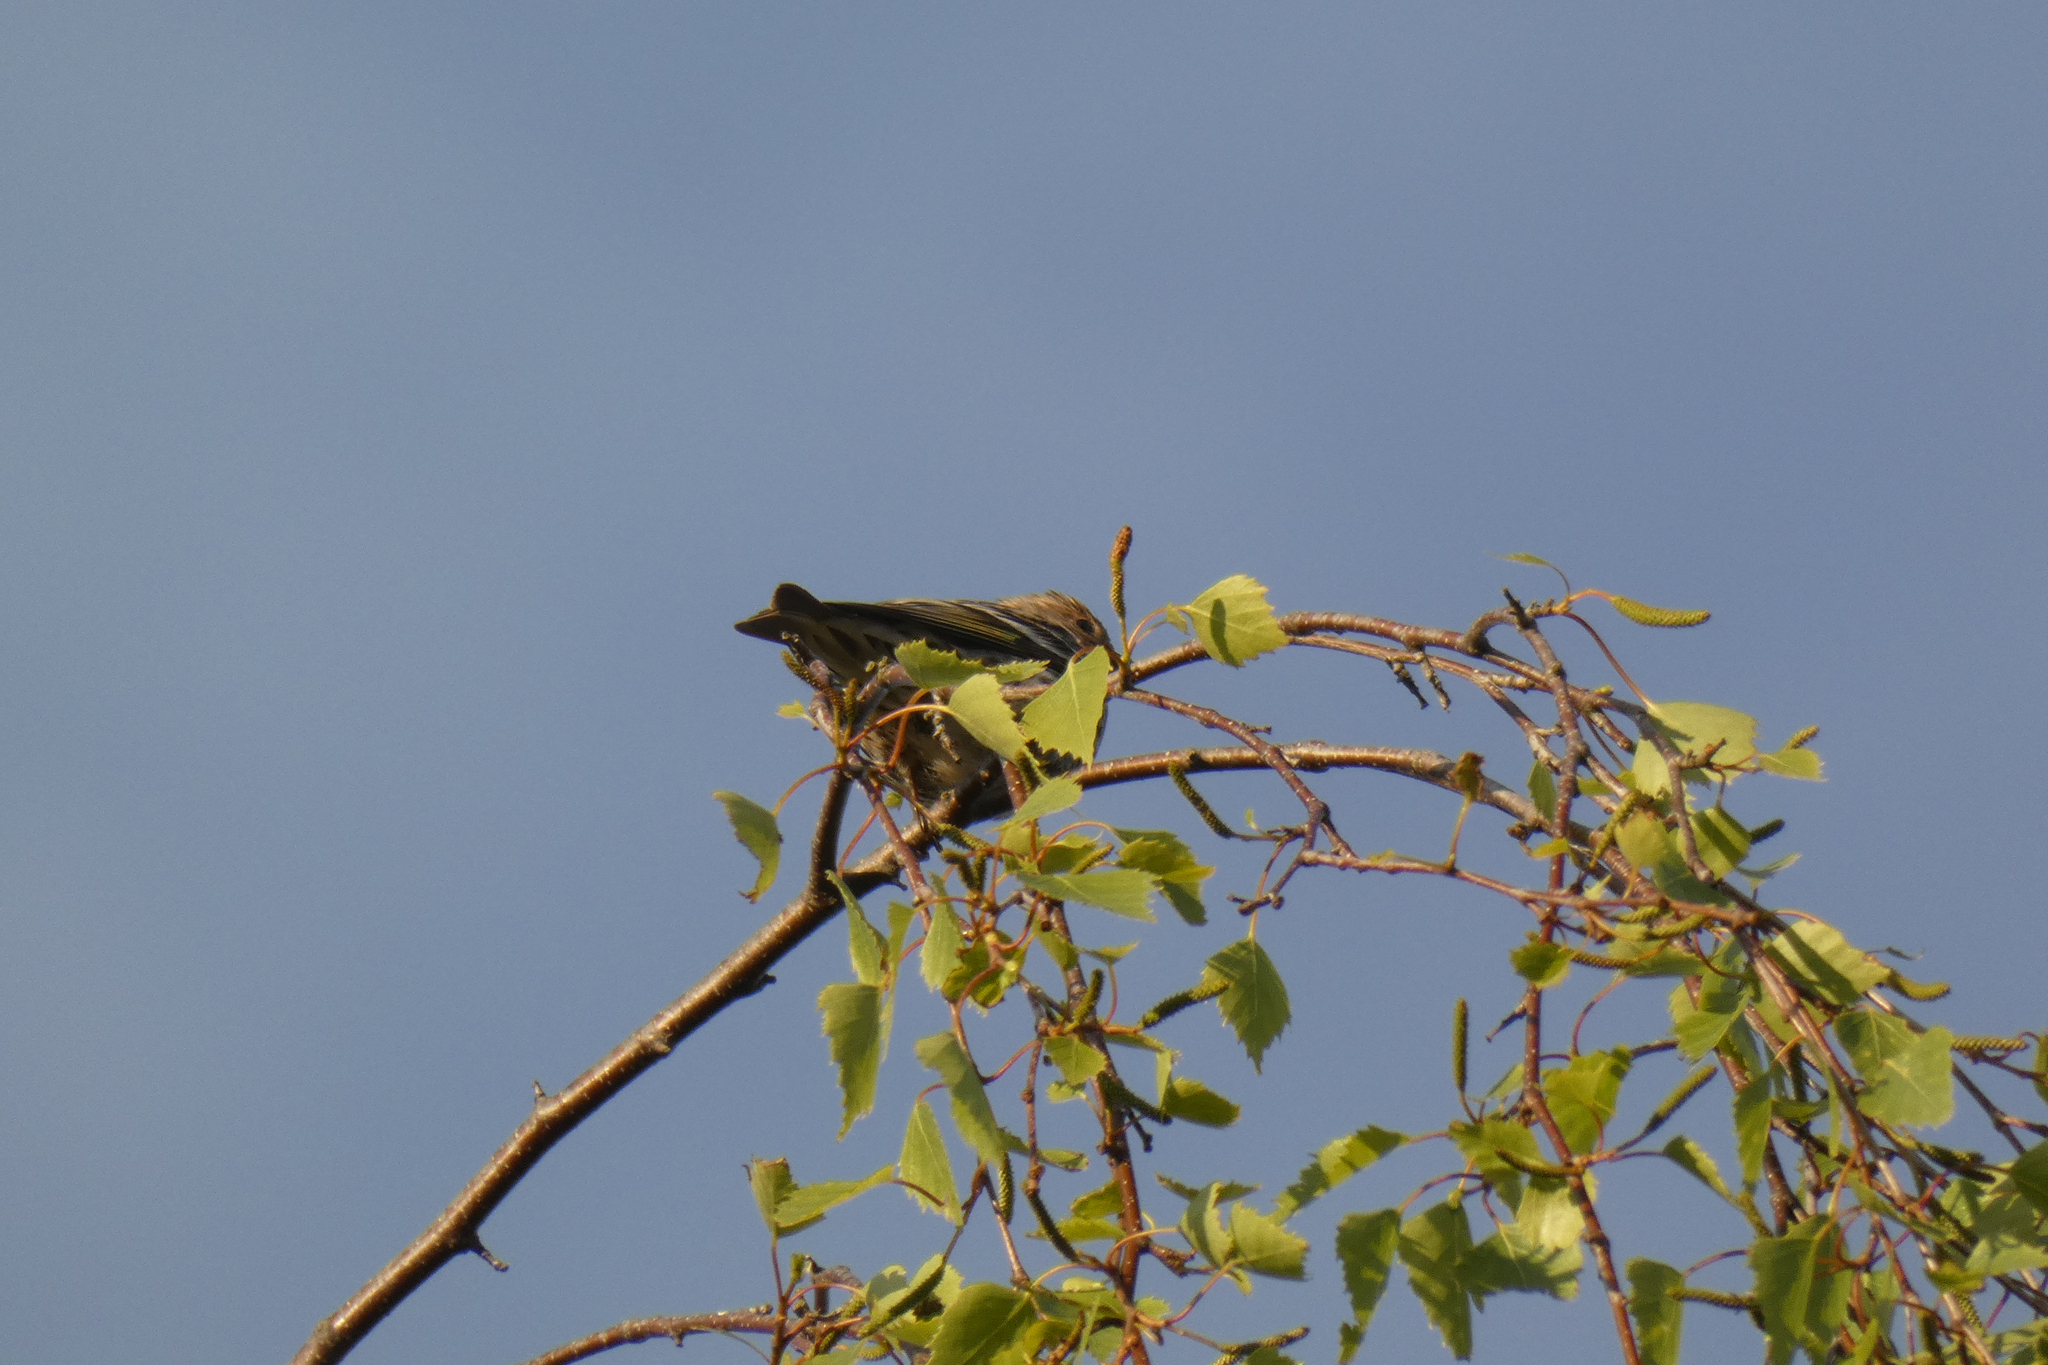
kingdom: Animalia
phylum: Chordata
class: Aves
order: Passeriformes
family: Fringillidae
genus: Spinus
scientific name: Spinus pinus
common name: Pine siskin
